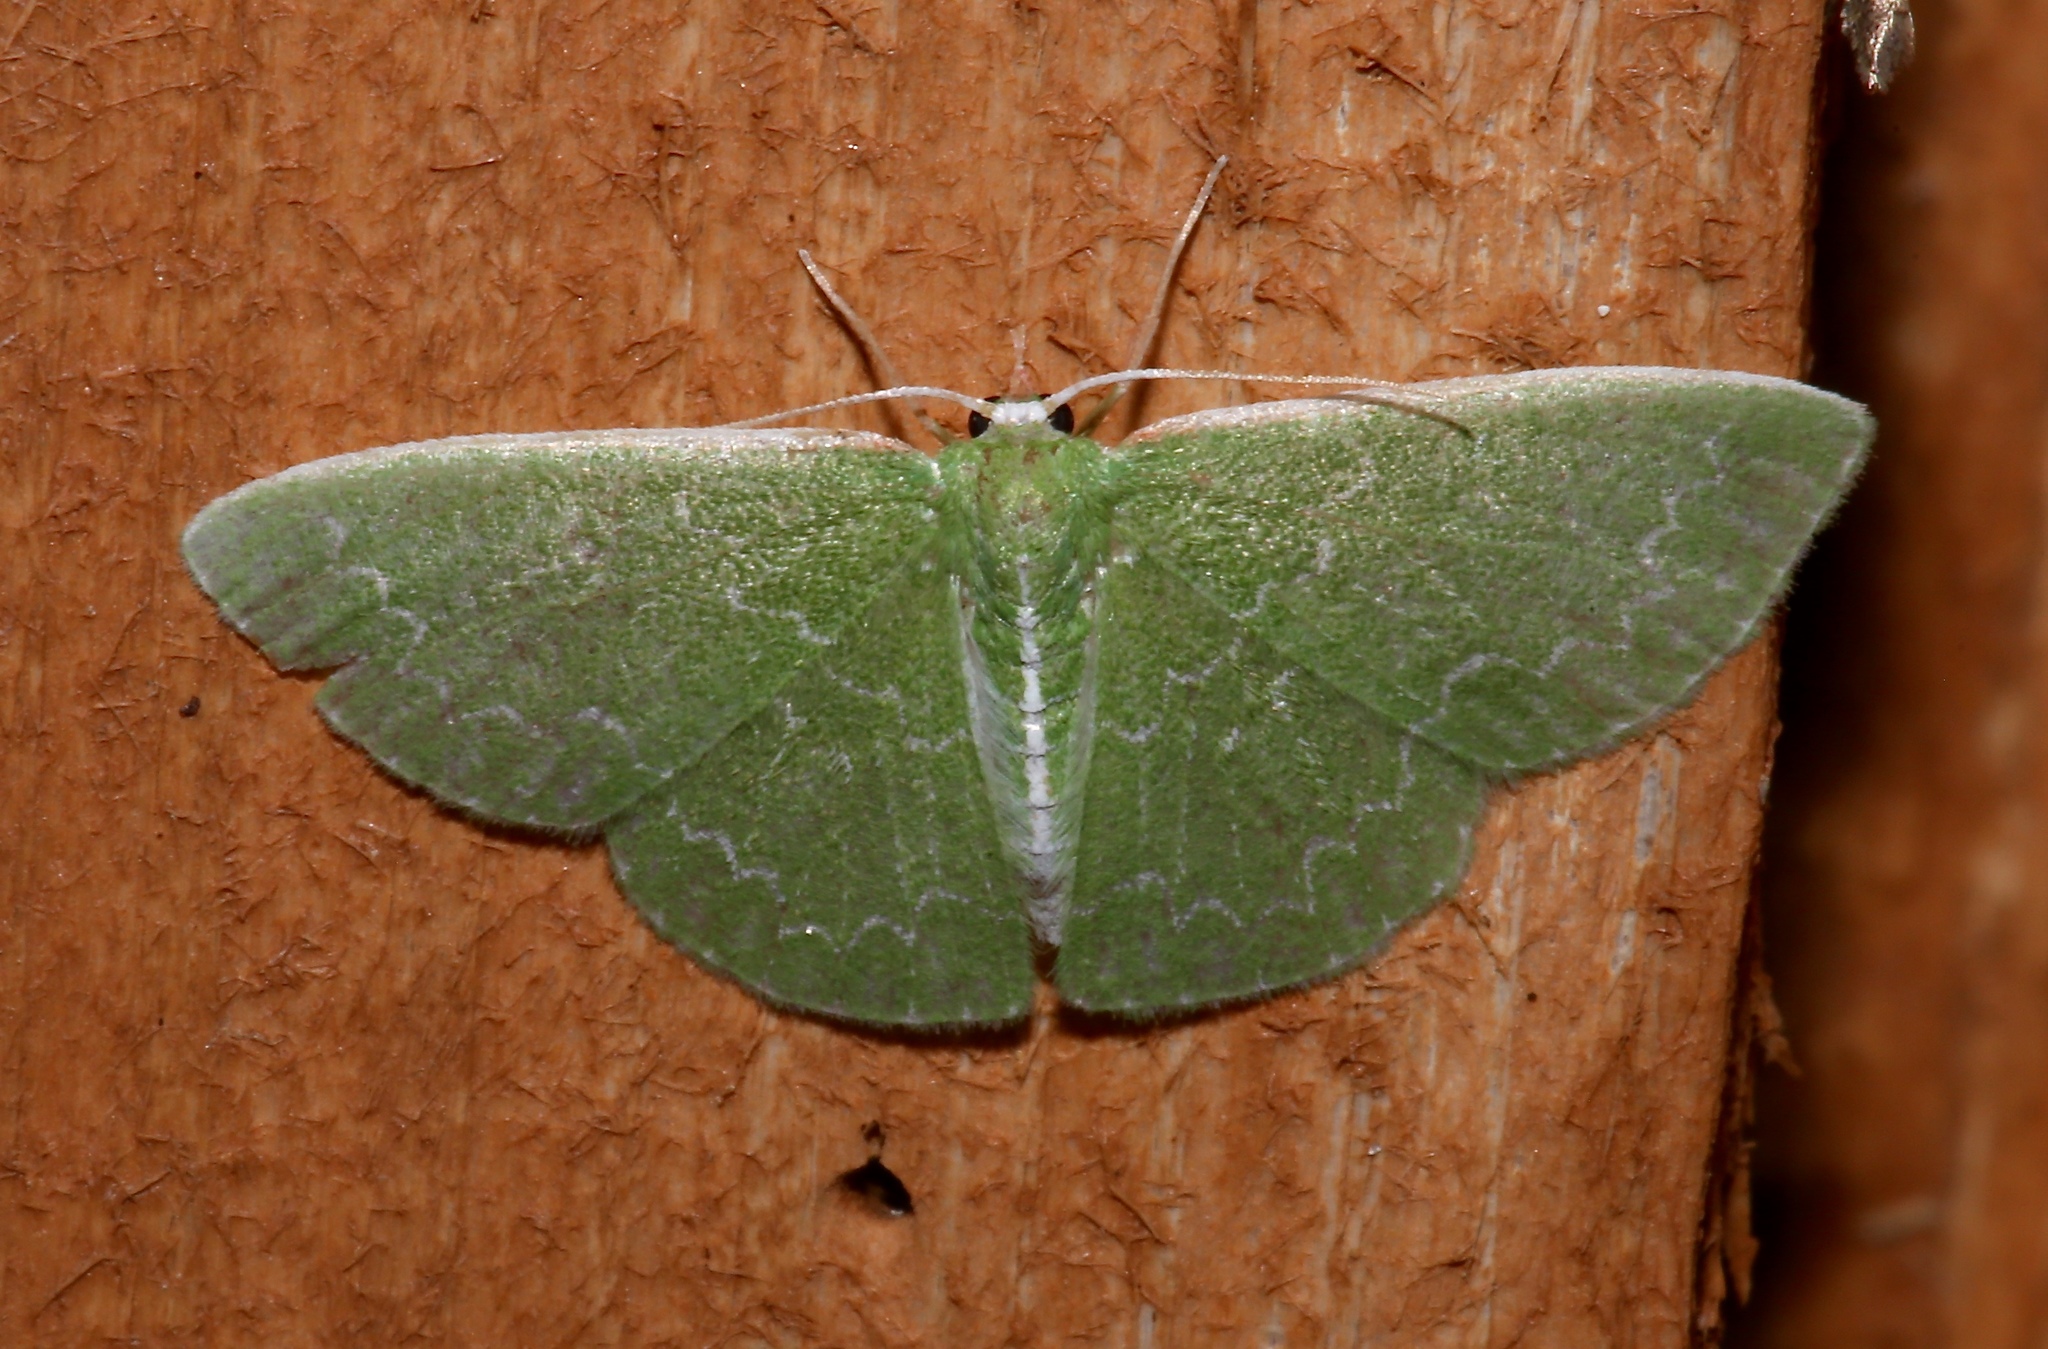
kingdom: Animalia
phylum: Arthropoda
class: Insecta
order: Lepidoptera
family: Geometridae
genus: Synchlora
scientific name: Synchlora frondaria
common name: Southern emerald
